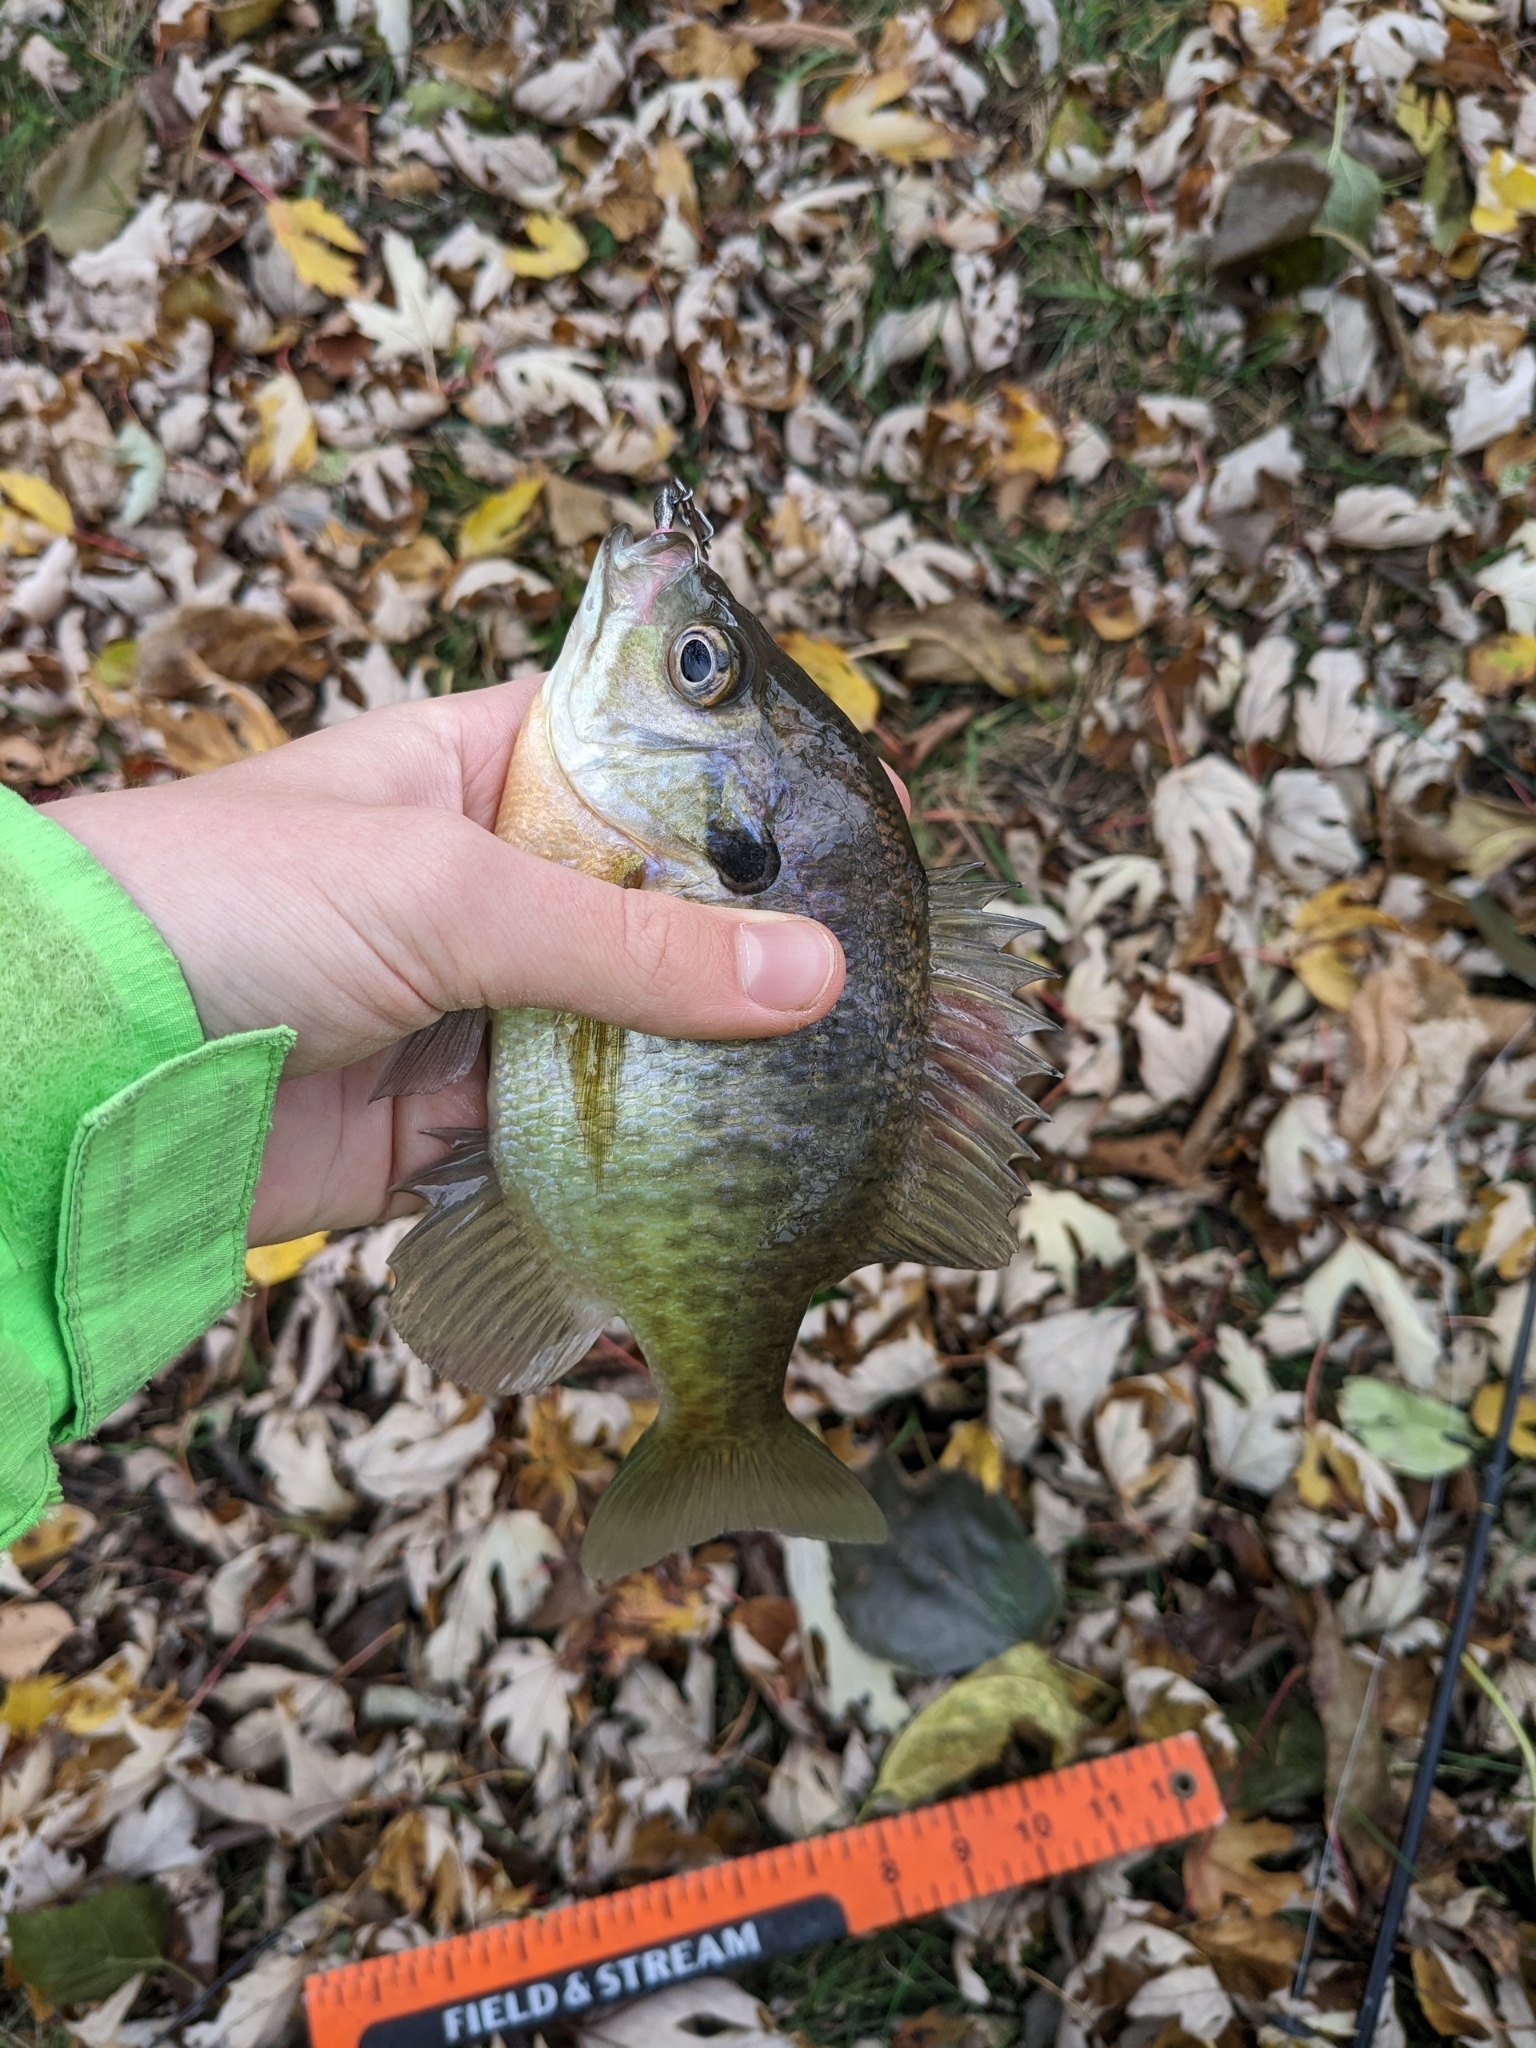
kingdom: Animalia
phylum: Chordata
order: Perciformes
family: Centrarchidae
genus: Lepomis
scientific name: Lepomis macrochirus
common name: Bluegill
